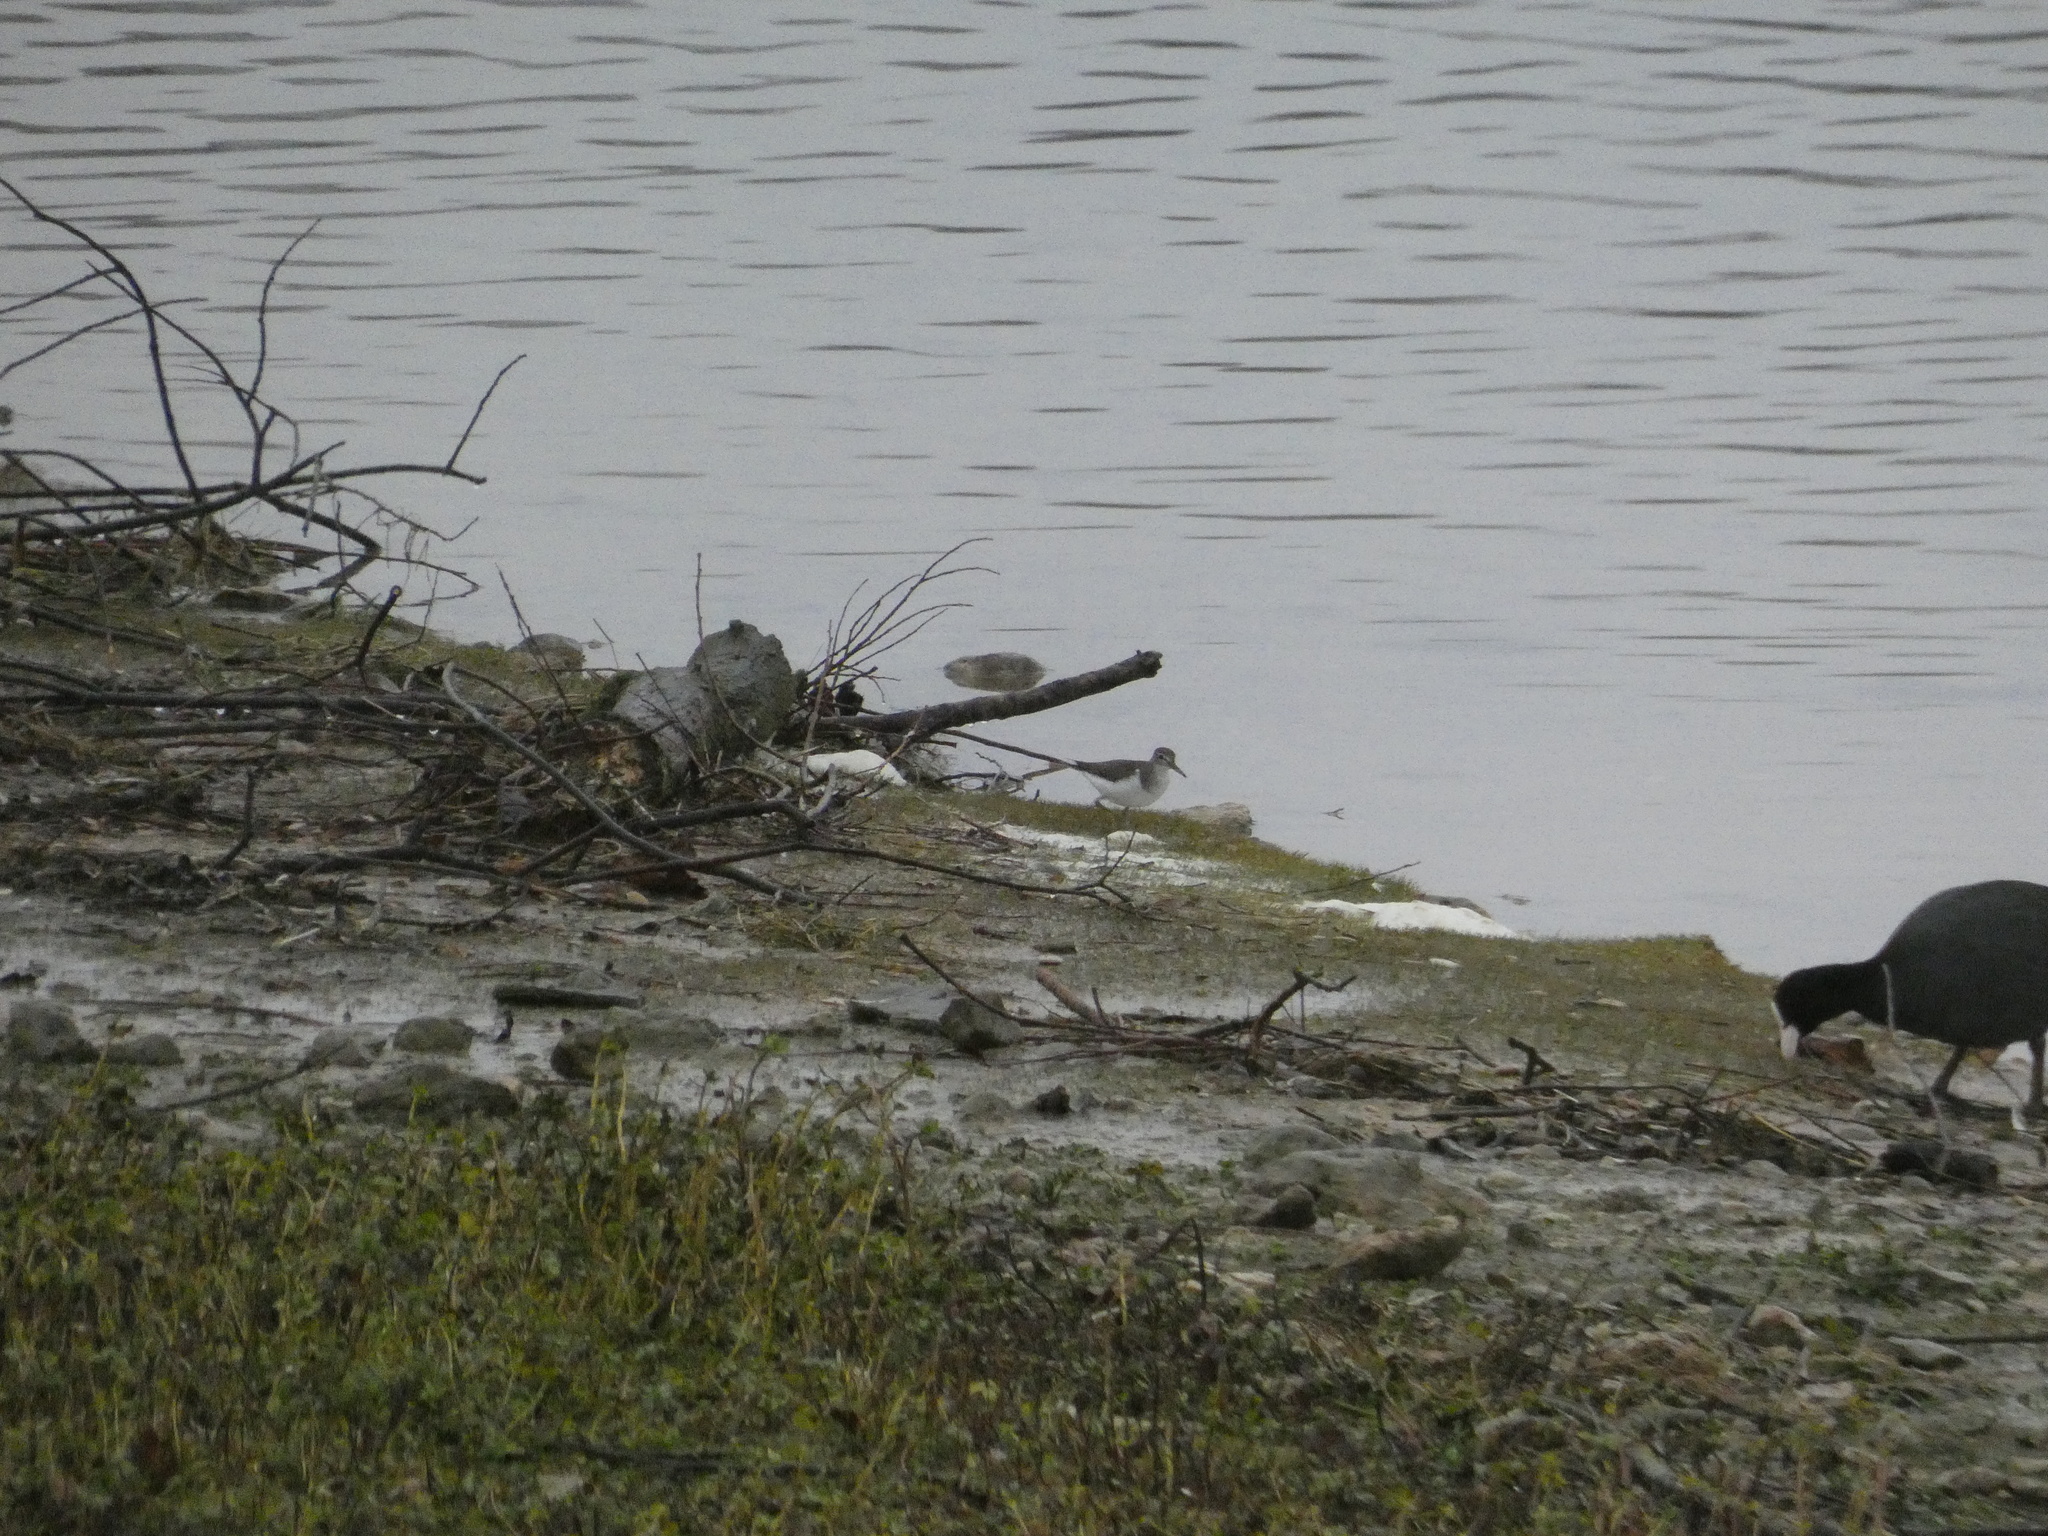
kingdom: Animalia
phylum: Chordata
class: Aves
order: Charadriiformes
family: Scolopacidae
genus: Actitis
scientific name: Actitis hypoleucos
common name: Common sandpiper
